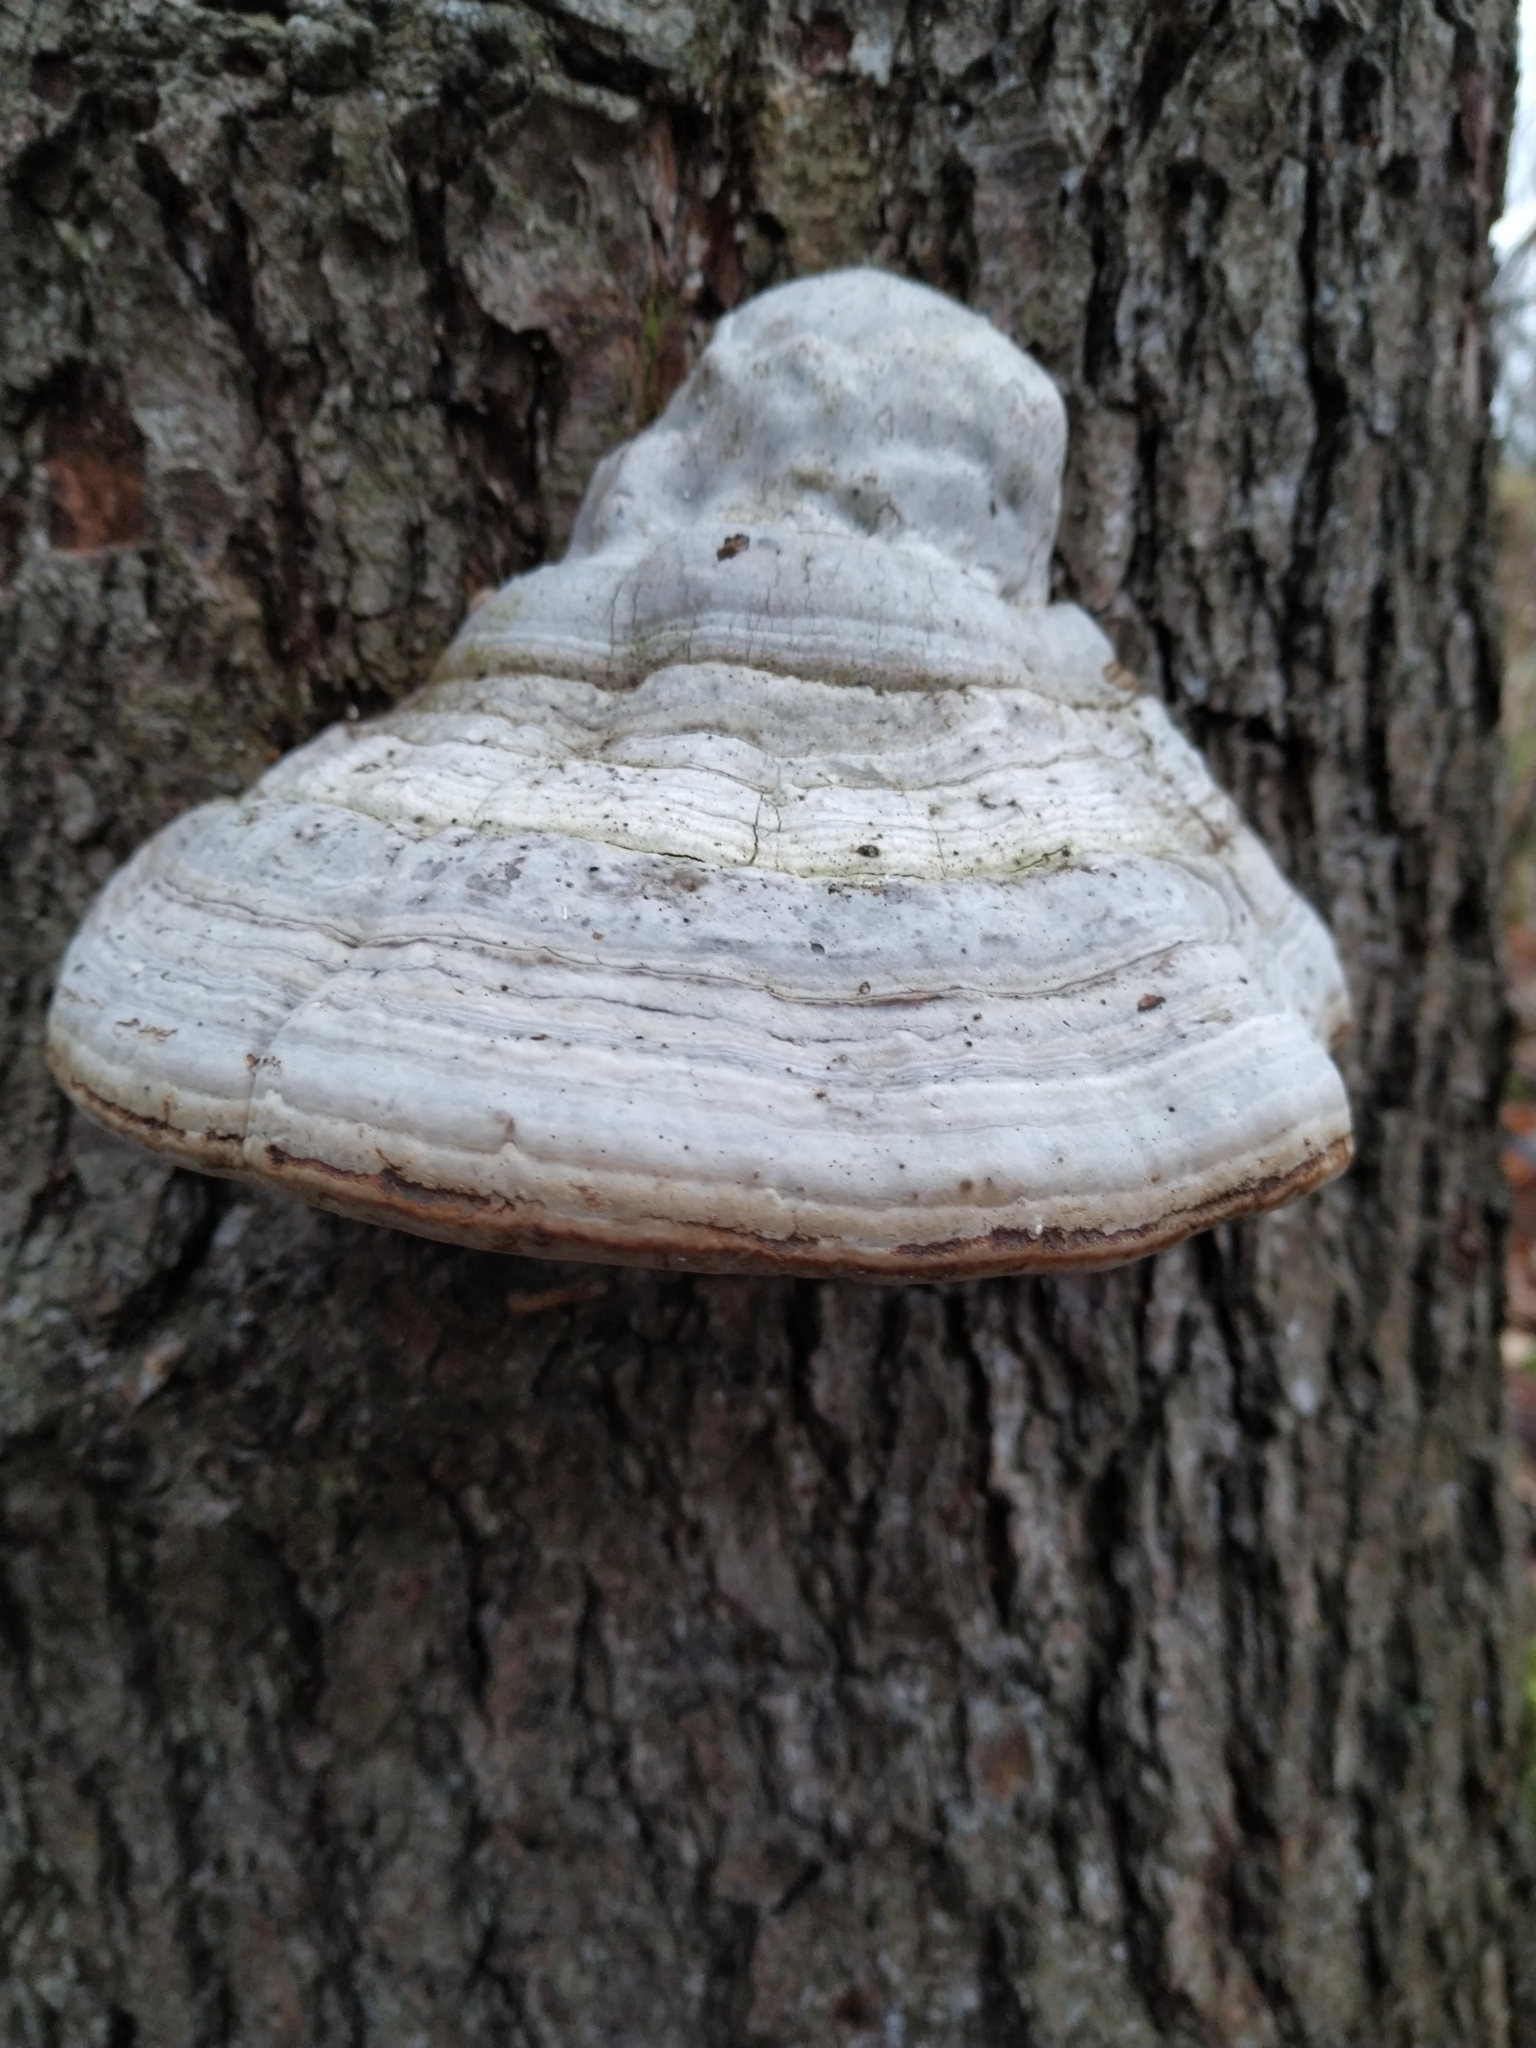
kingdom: Fungi
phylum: Basidiomycota
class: Agaricomycetes
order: Polyporales
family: Polyporaceae
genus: Fomes
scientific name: Fomes fomentarius
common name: Hoof fungus
